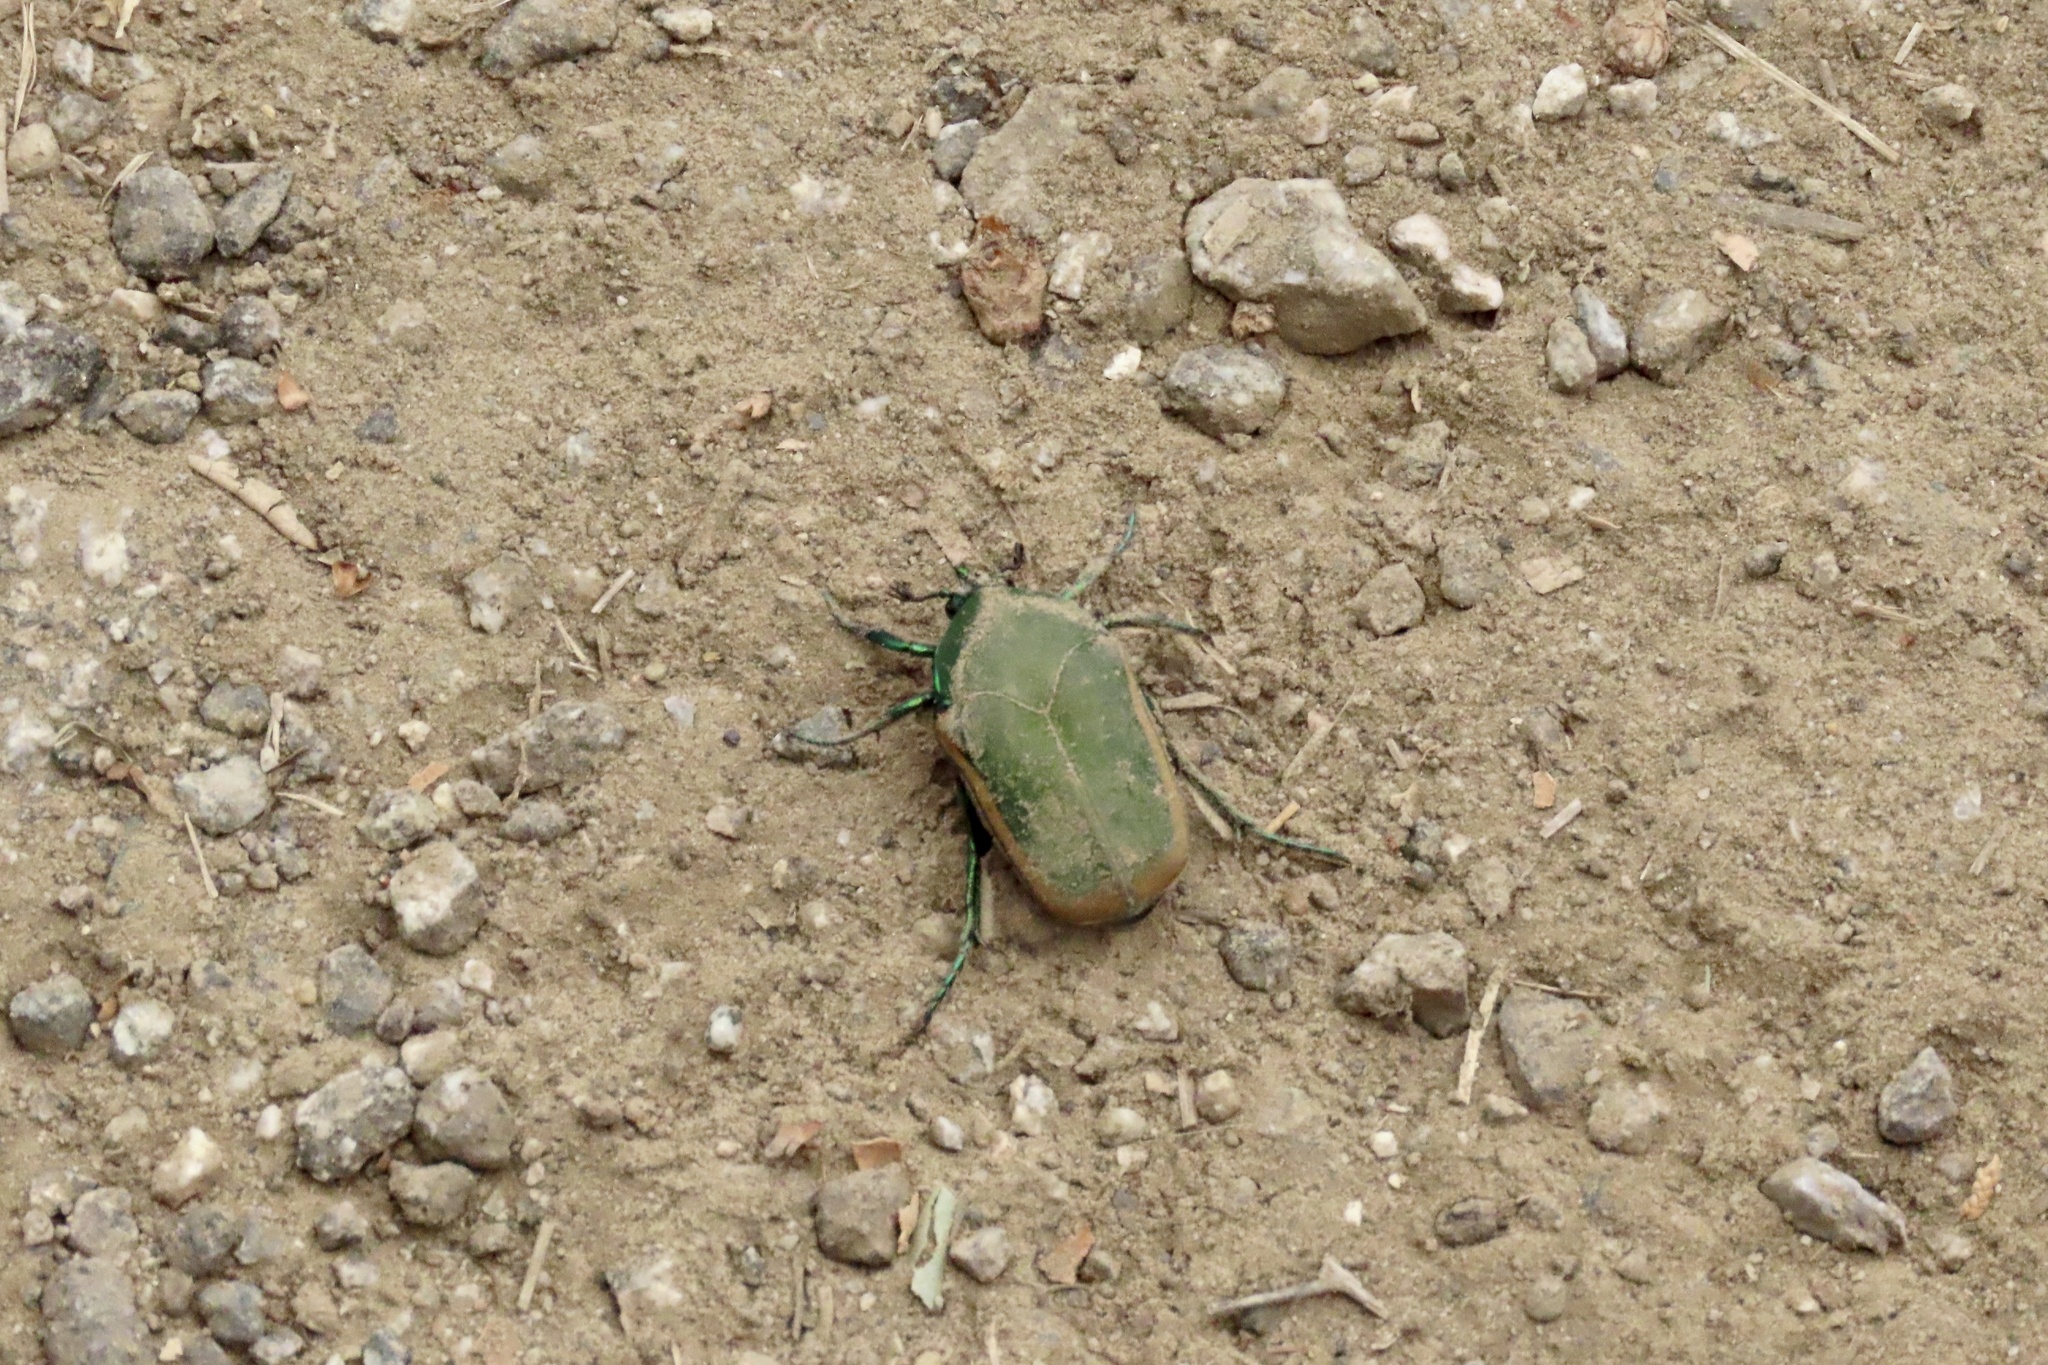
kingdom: Animalia
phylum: Arthropoda
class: Insecta
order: Coleoptera
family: Scarabaeidae
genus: Cotinis
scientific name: Cotinis mutabilis
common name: Figeater beetle
